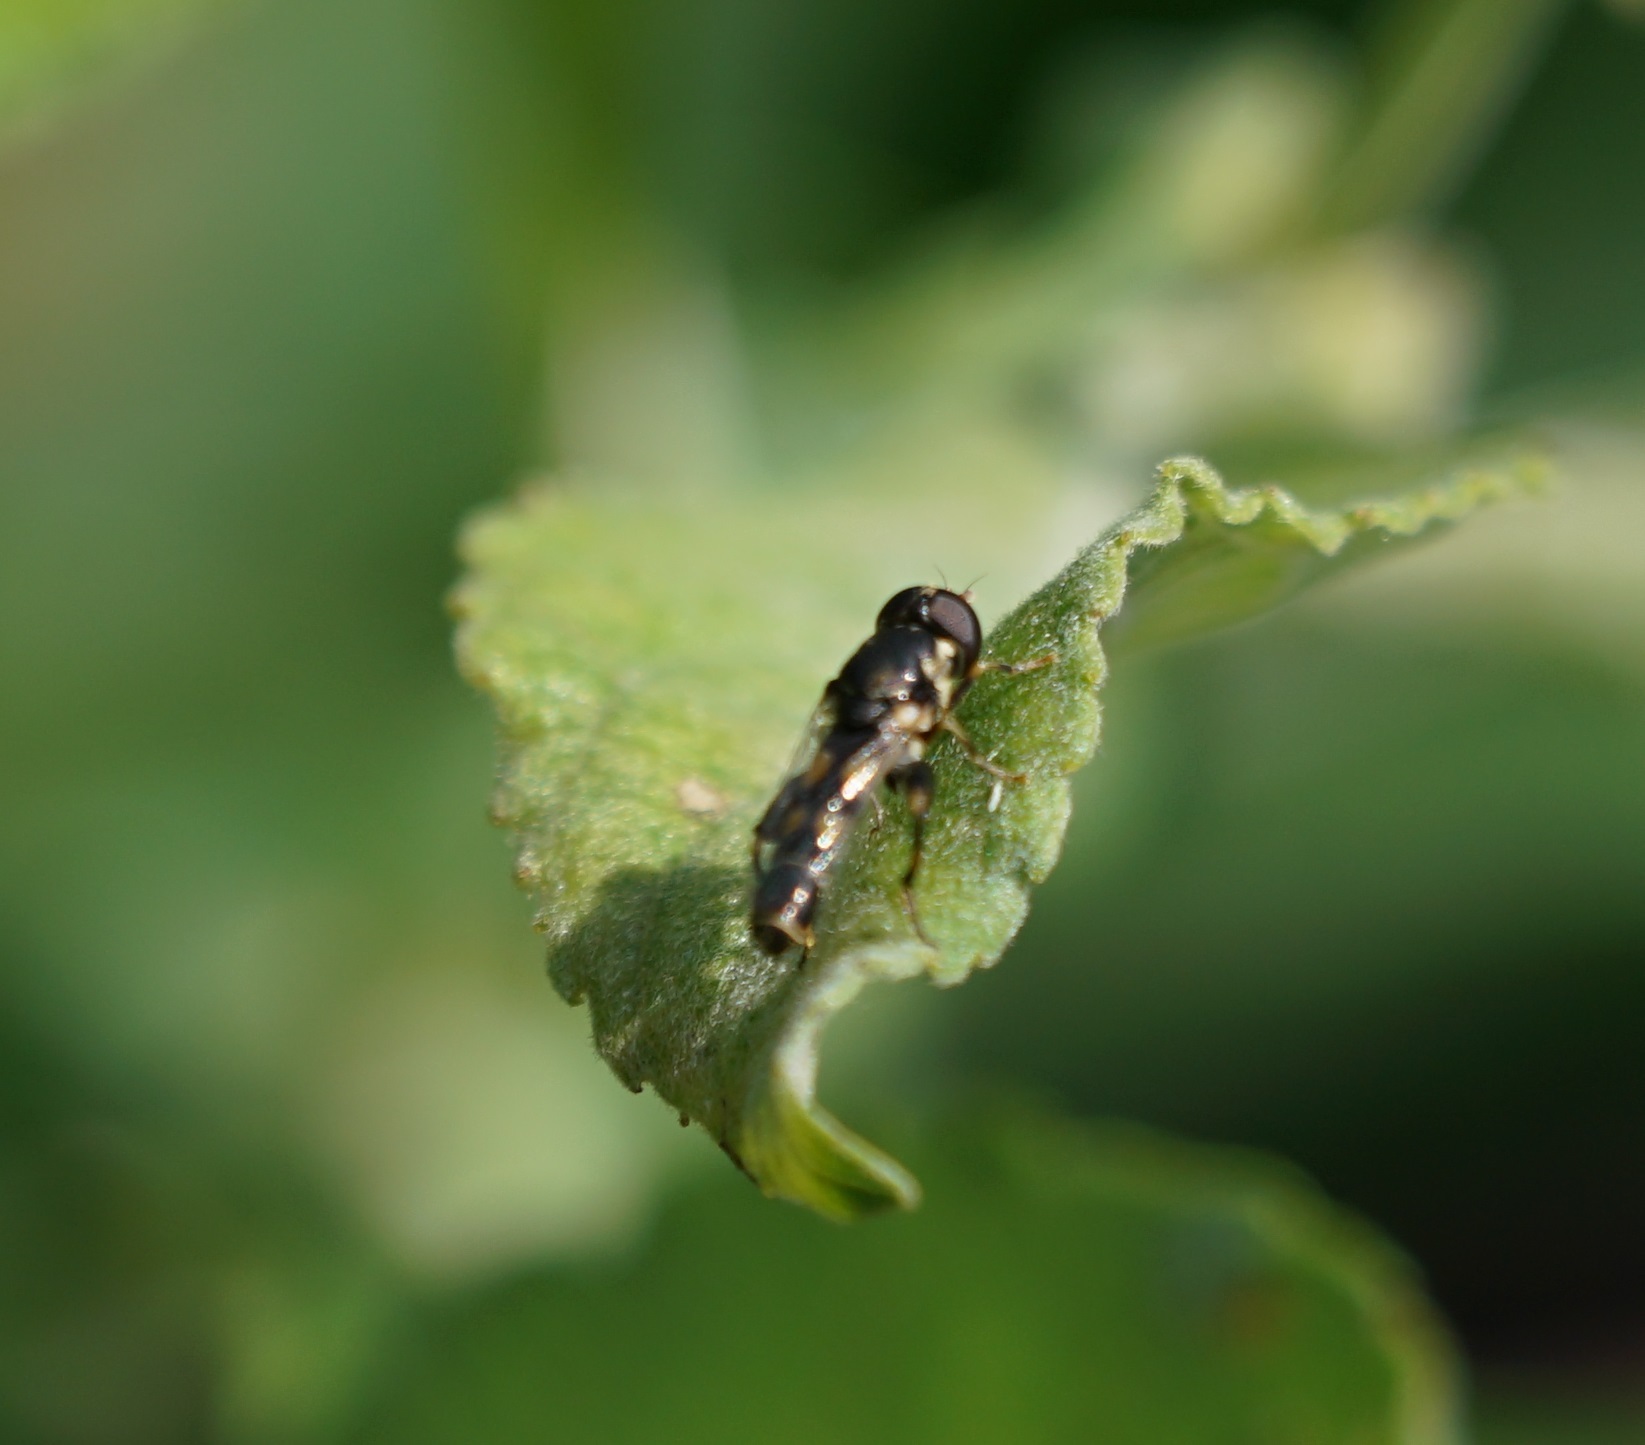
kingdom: Animalia
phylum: Arthropoda
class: Insecta
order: Diptera
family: Syrphidae
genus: Syritta
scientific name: Syritta pipiens
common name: Hover fly
